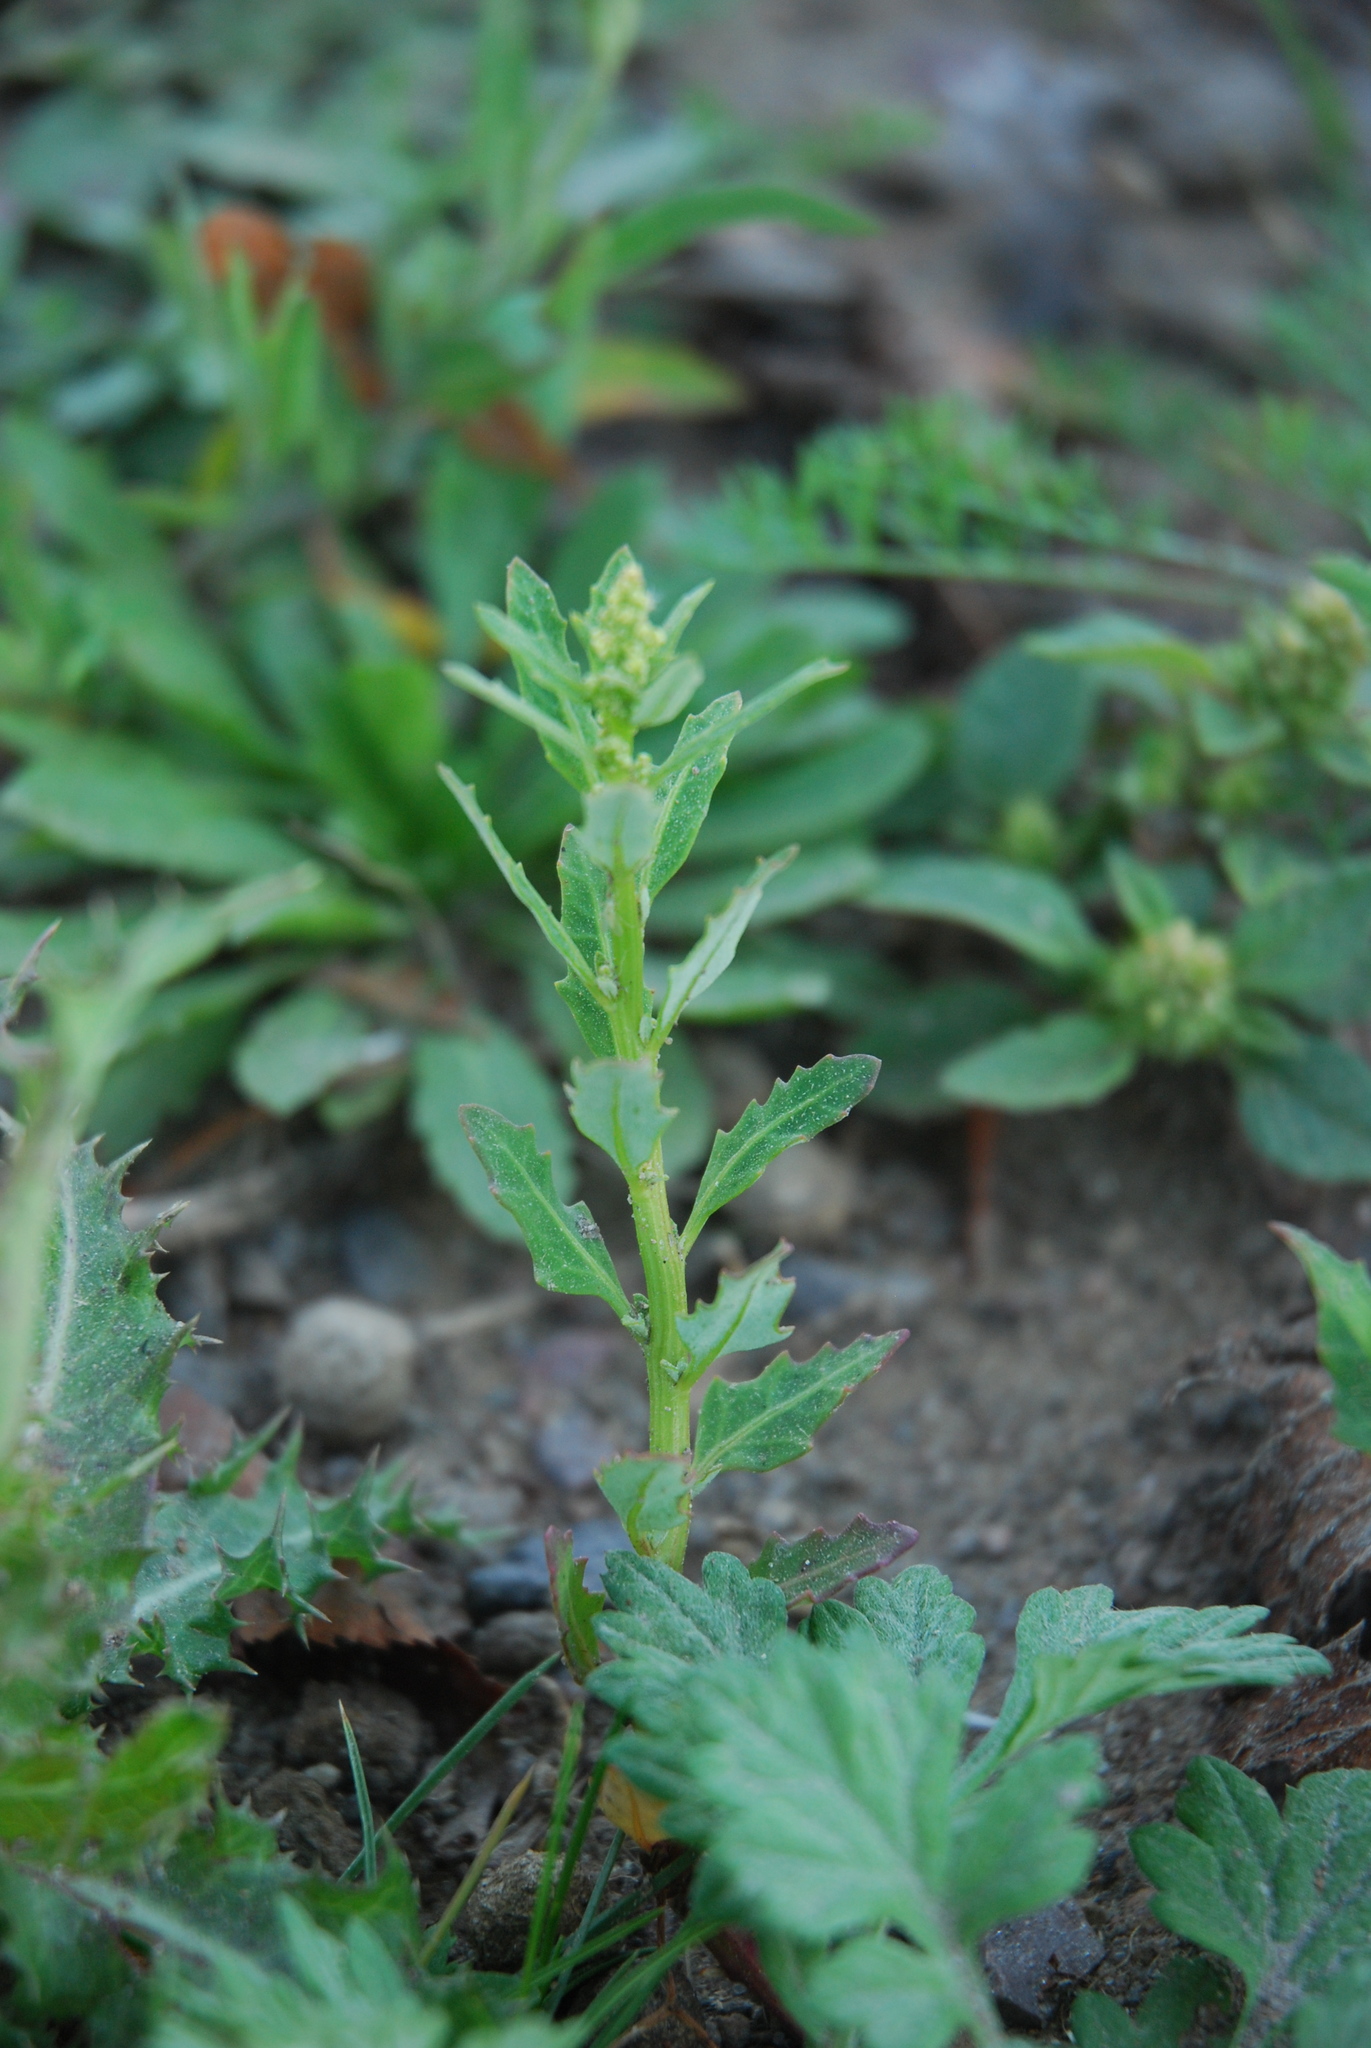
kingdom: Plantae
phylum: Tracheophyta
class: Magnoliopsida
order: Caryophyllales
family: Amaranthaceae
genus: Oxybasis
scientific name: Oxybasis glauca
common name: Glaucous goosefoot
